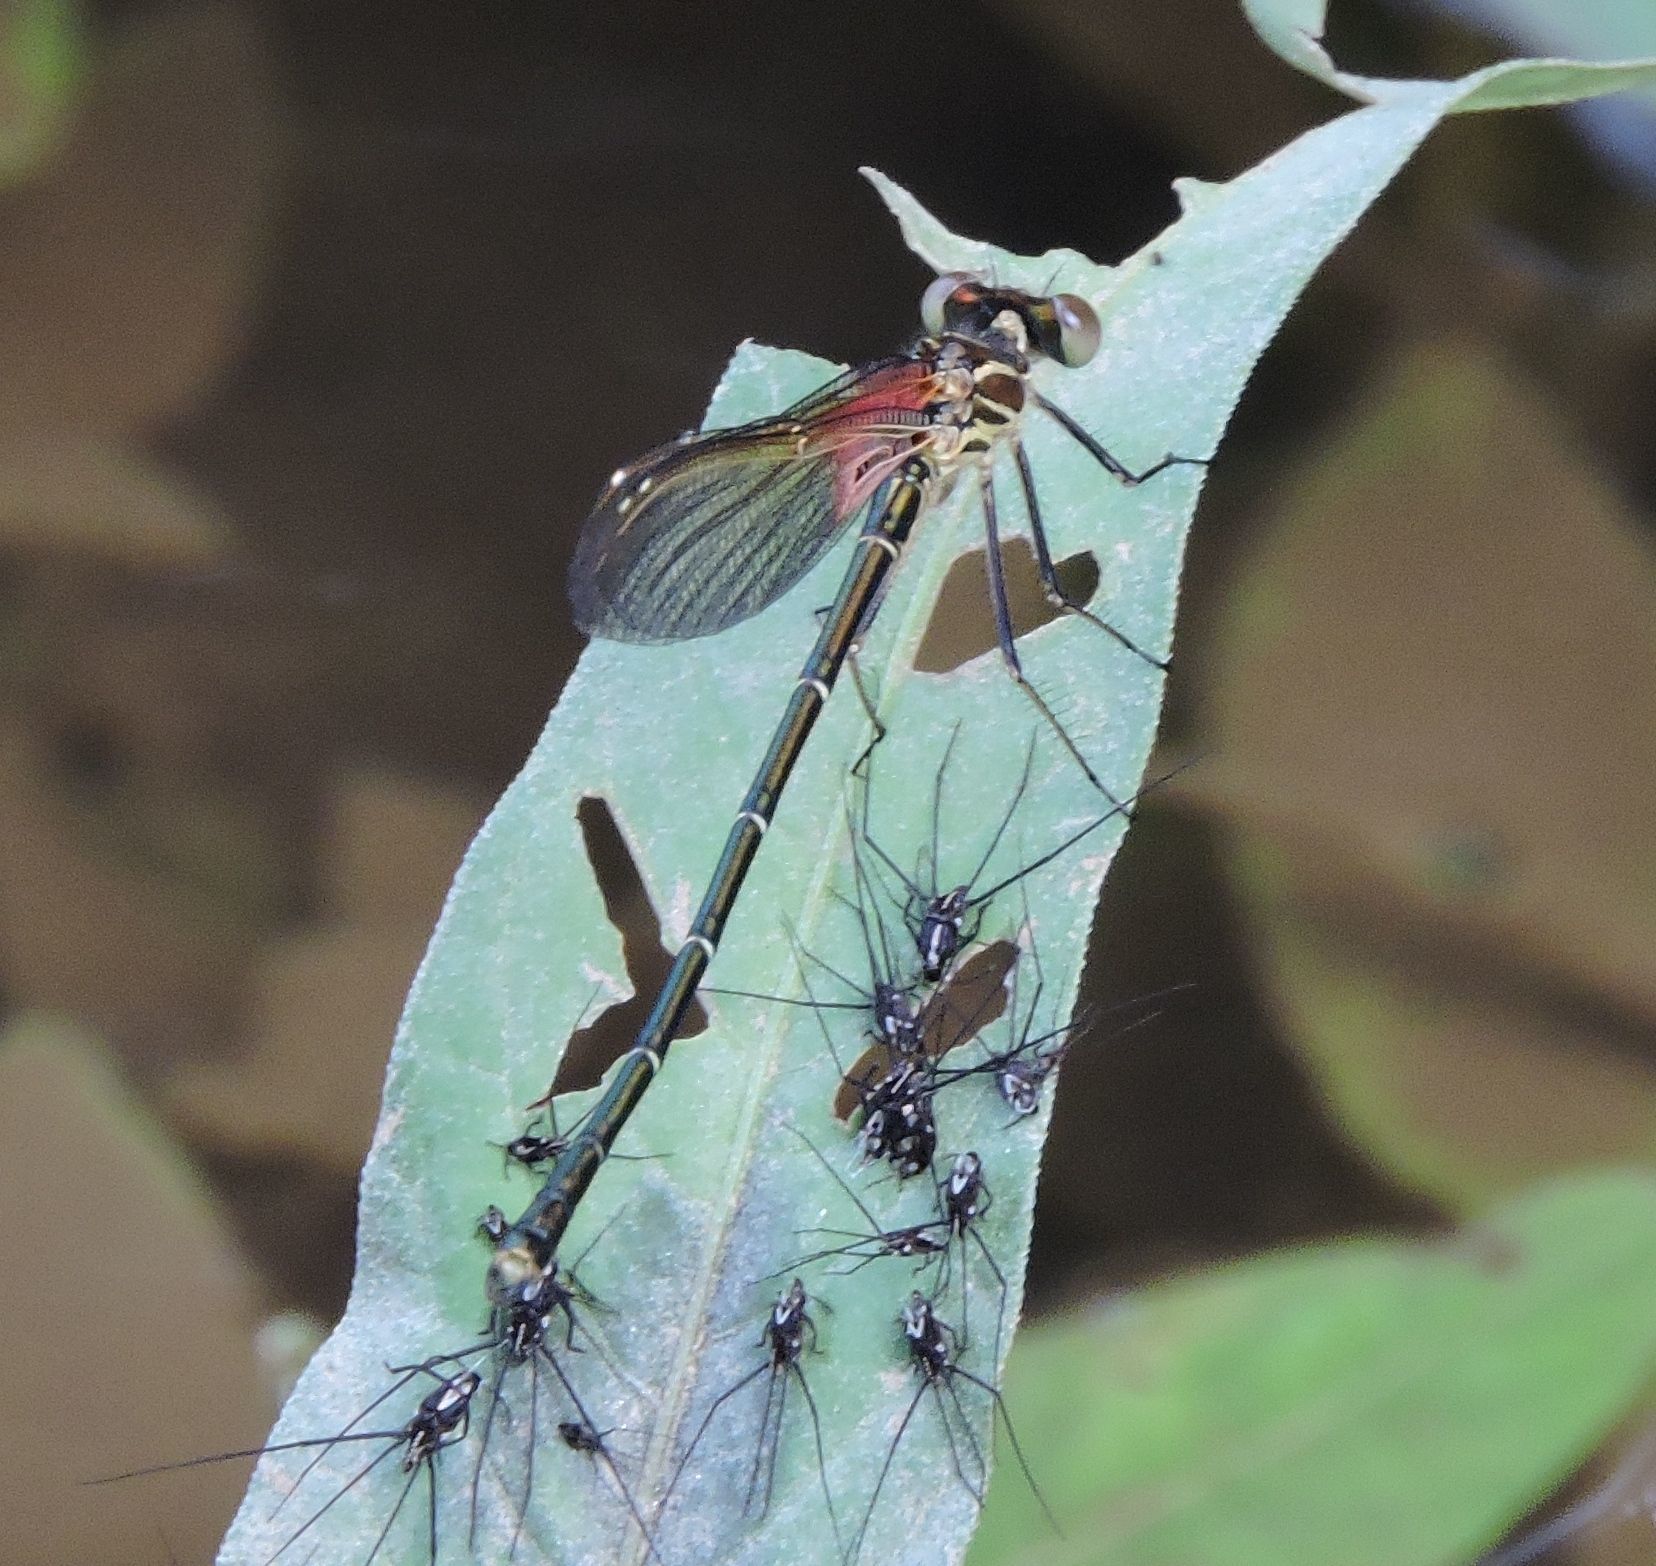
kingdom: Animalia
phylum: Arthropoda
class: Insecta
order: Odonata
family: Calopterygidae
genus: Hetaerina
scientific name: Hetaerina americana
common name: American rubyspot
